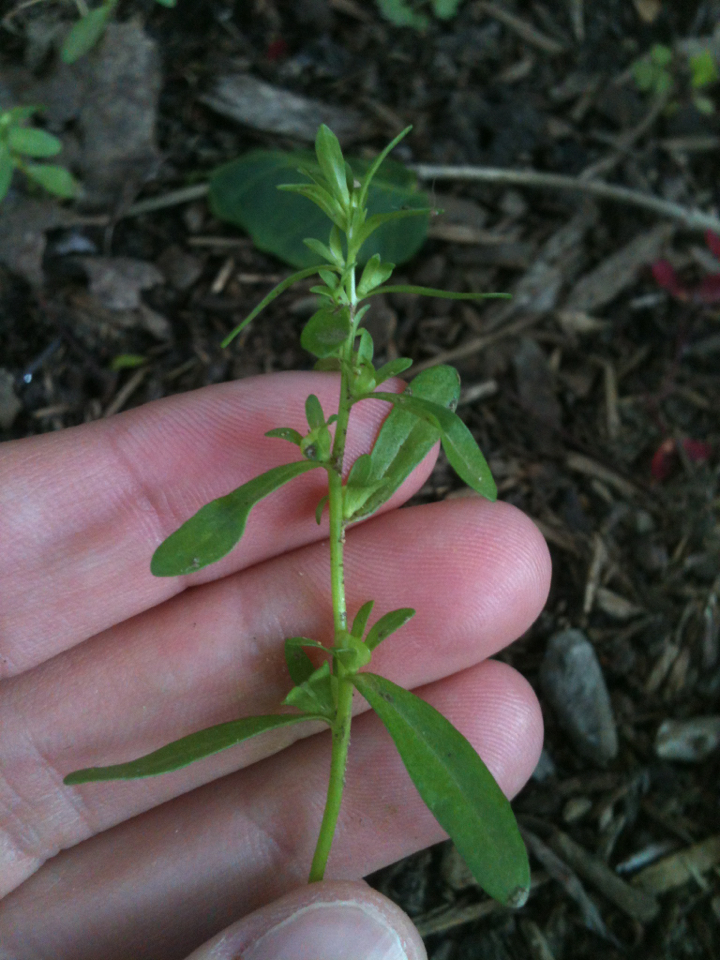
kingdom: Plantae
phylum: Tracheophyta
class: Magnoliopsida
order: Lamiales
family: Plantaginaceae
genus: Veronica
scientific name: Veronica peregrina
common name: Neckweed
